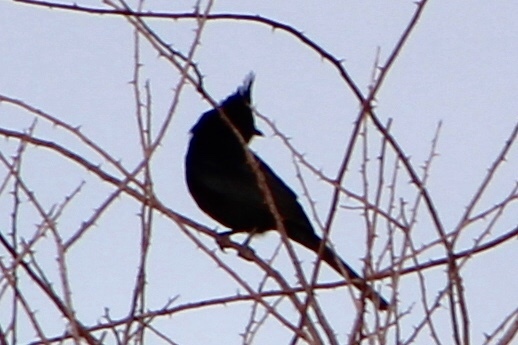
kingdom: Animalia
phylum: Chordata
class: Aves
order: Passeriformes
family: Ptilogonatidae
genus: Phainopepla
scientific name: Phainopepla nitens
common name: Phainopepla
